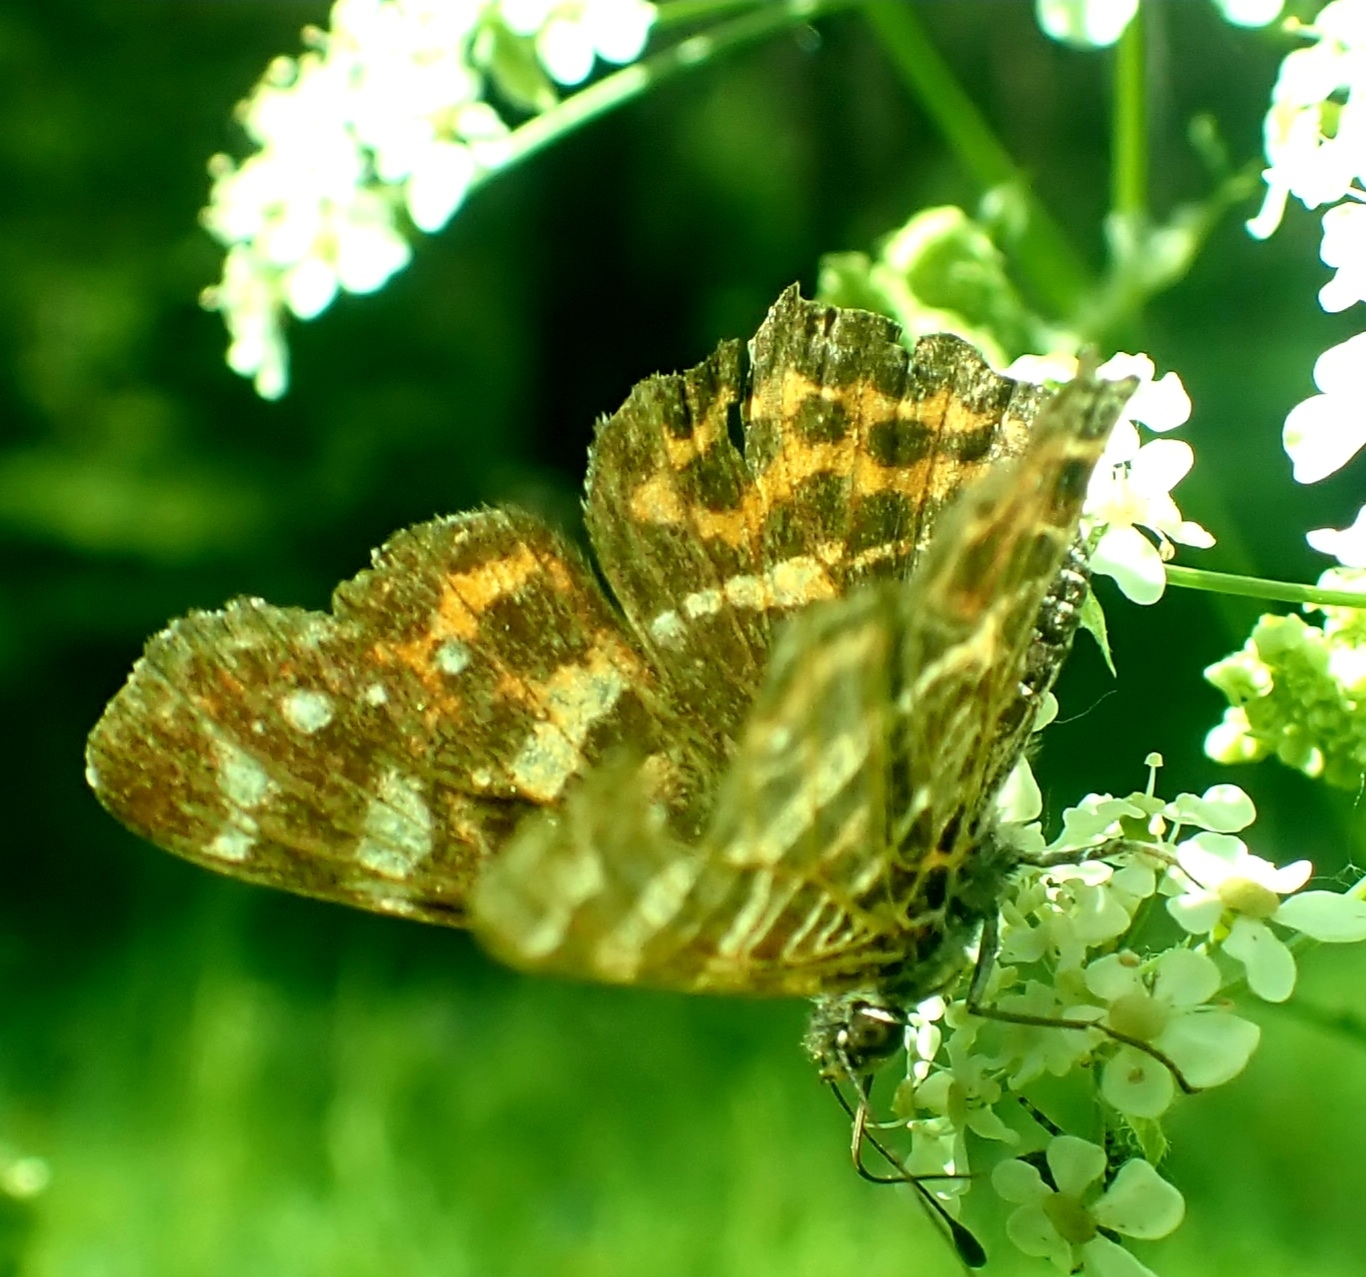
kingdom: Animalia
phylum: Arthropoda
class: Insecta
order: Lepidoptera
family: Nymphalidae
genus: Araschnia
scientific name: Araschnia levana
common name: Map butterfly
